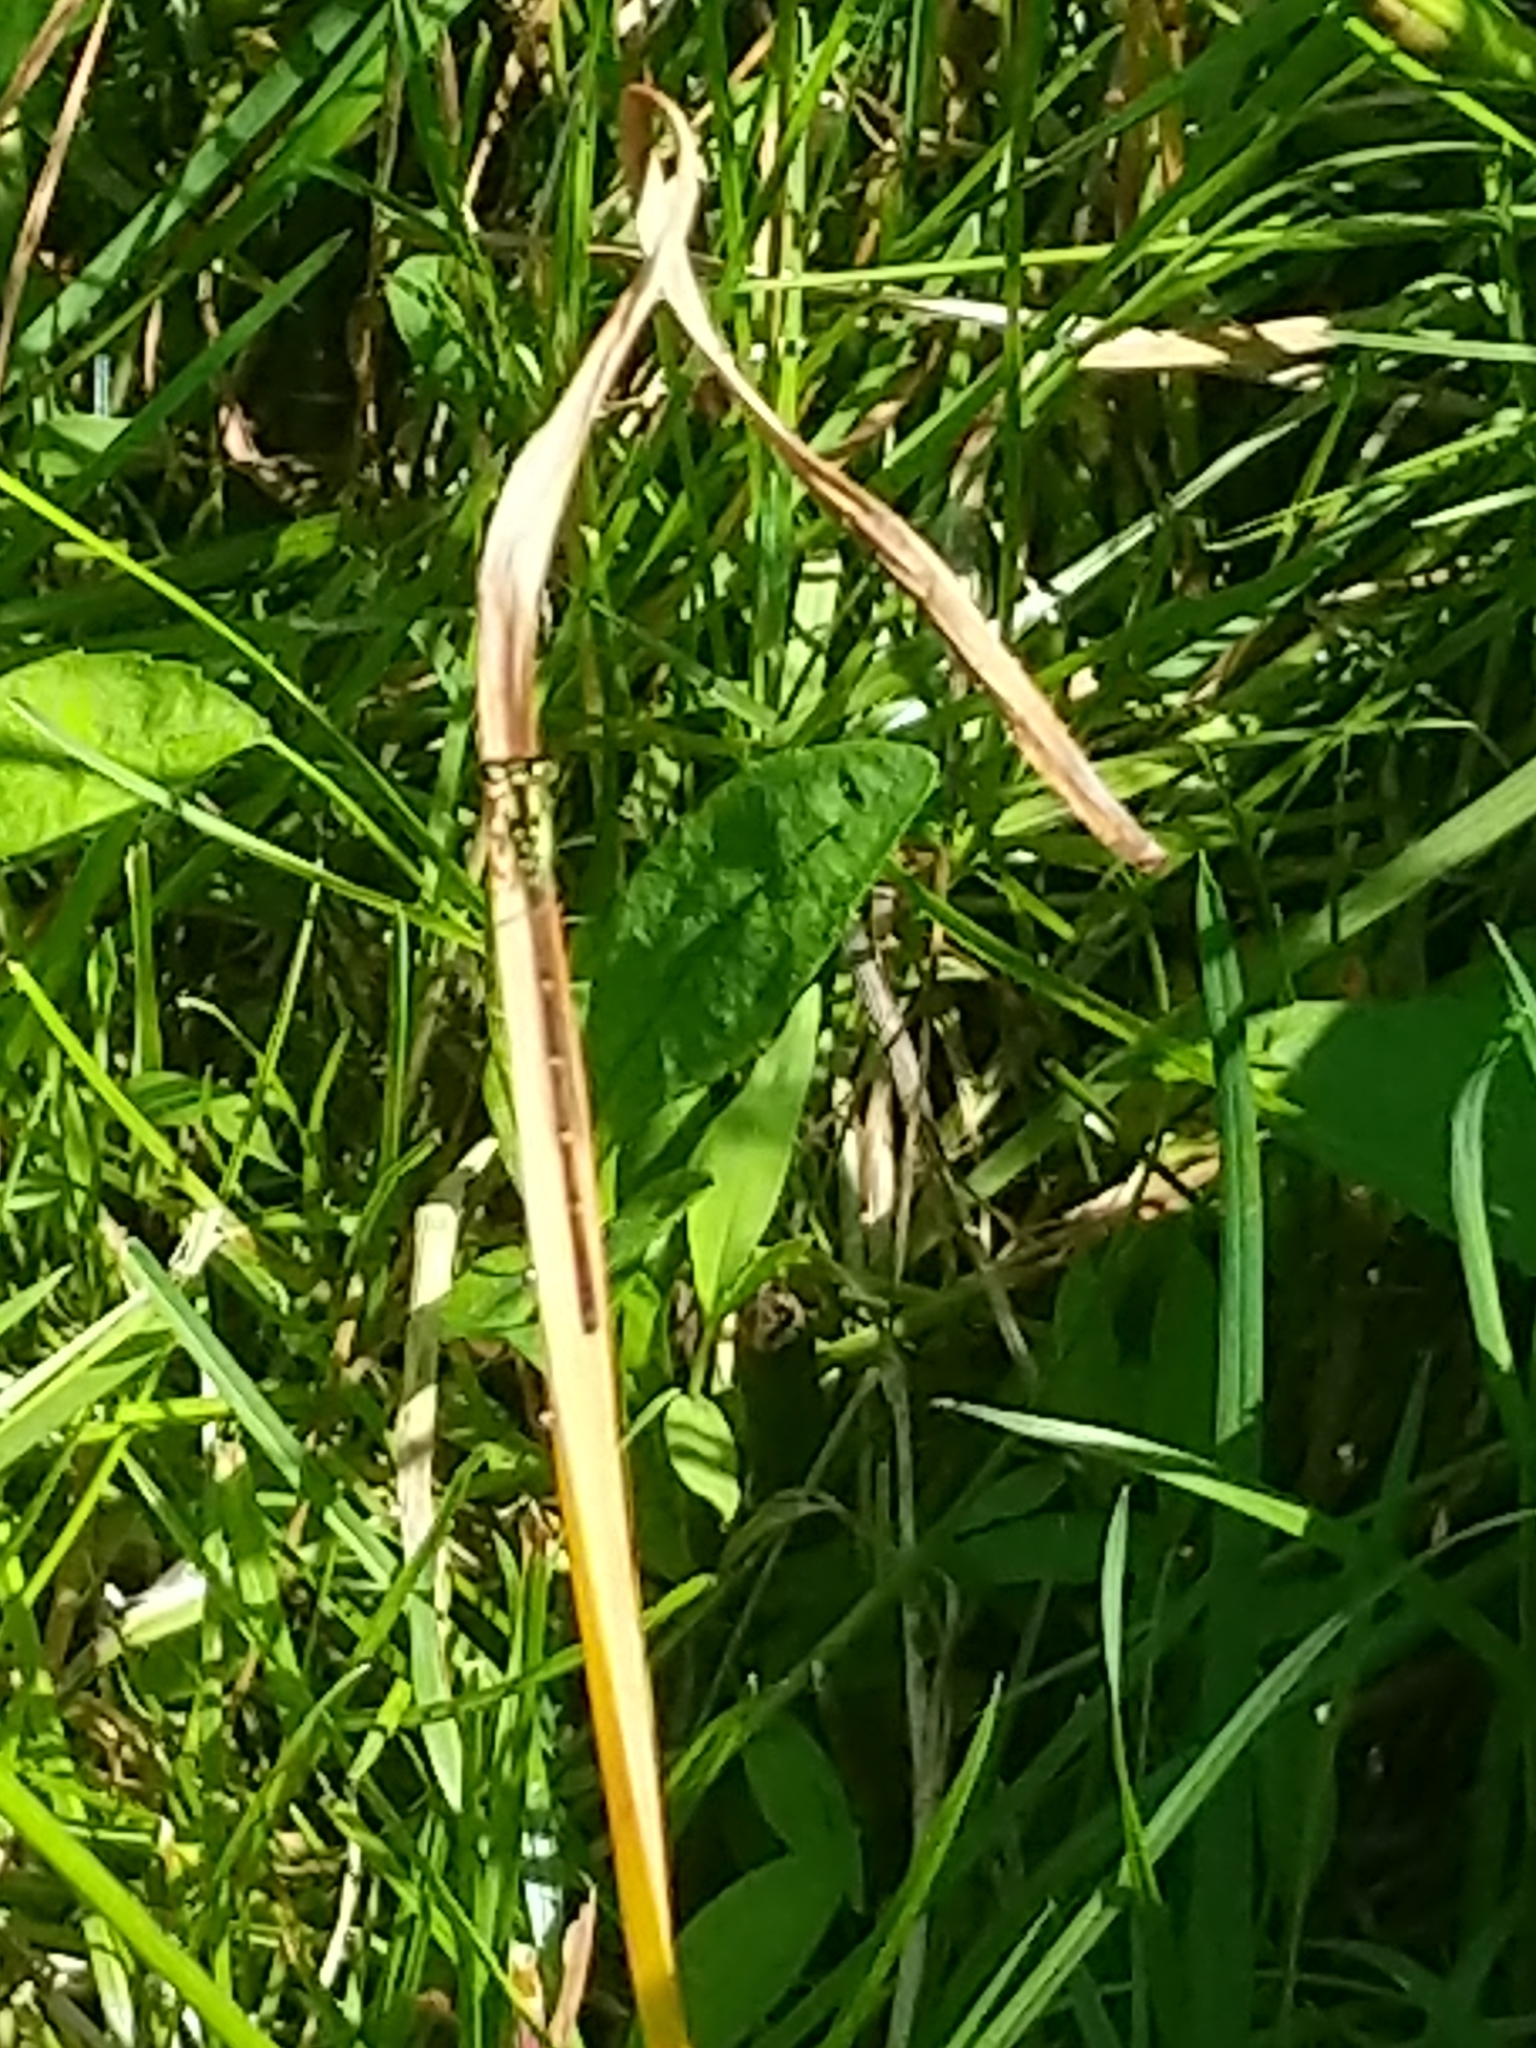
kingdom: Animalia
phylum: Arthropoda
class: Insecta
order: Odonata
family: Coenagrionidae
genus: Ischnura
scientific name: Ischnura posita
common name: Fragile forktail
